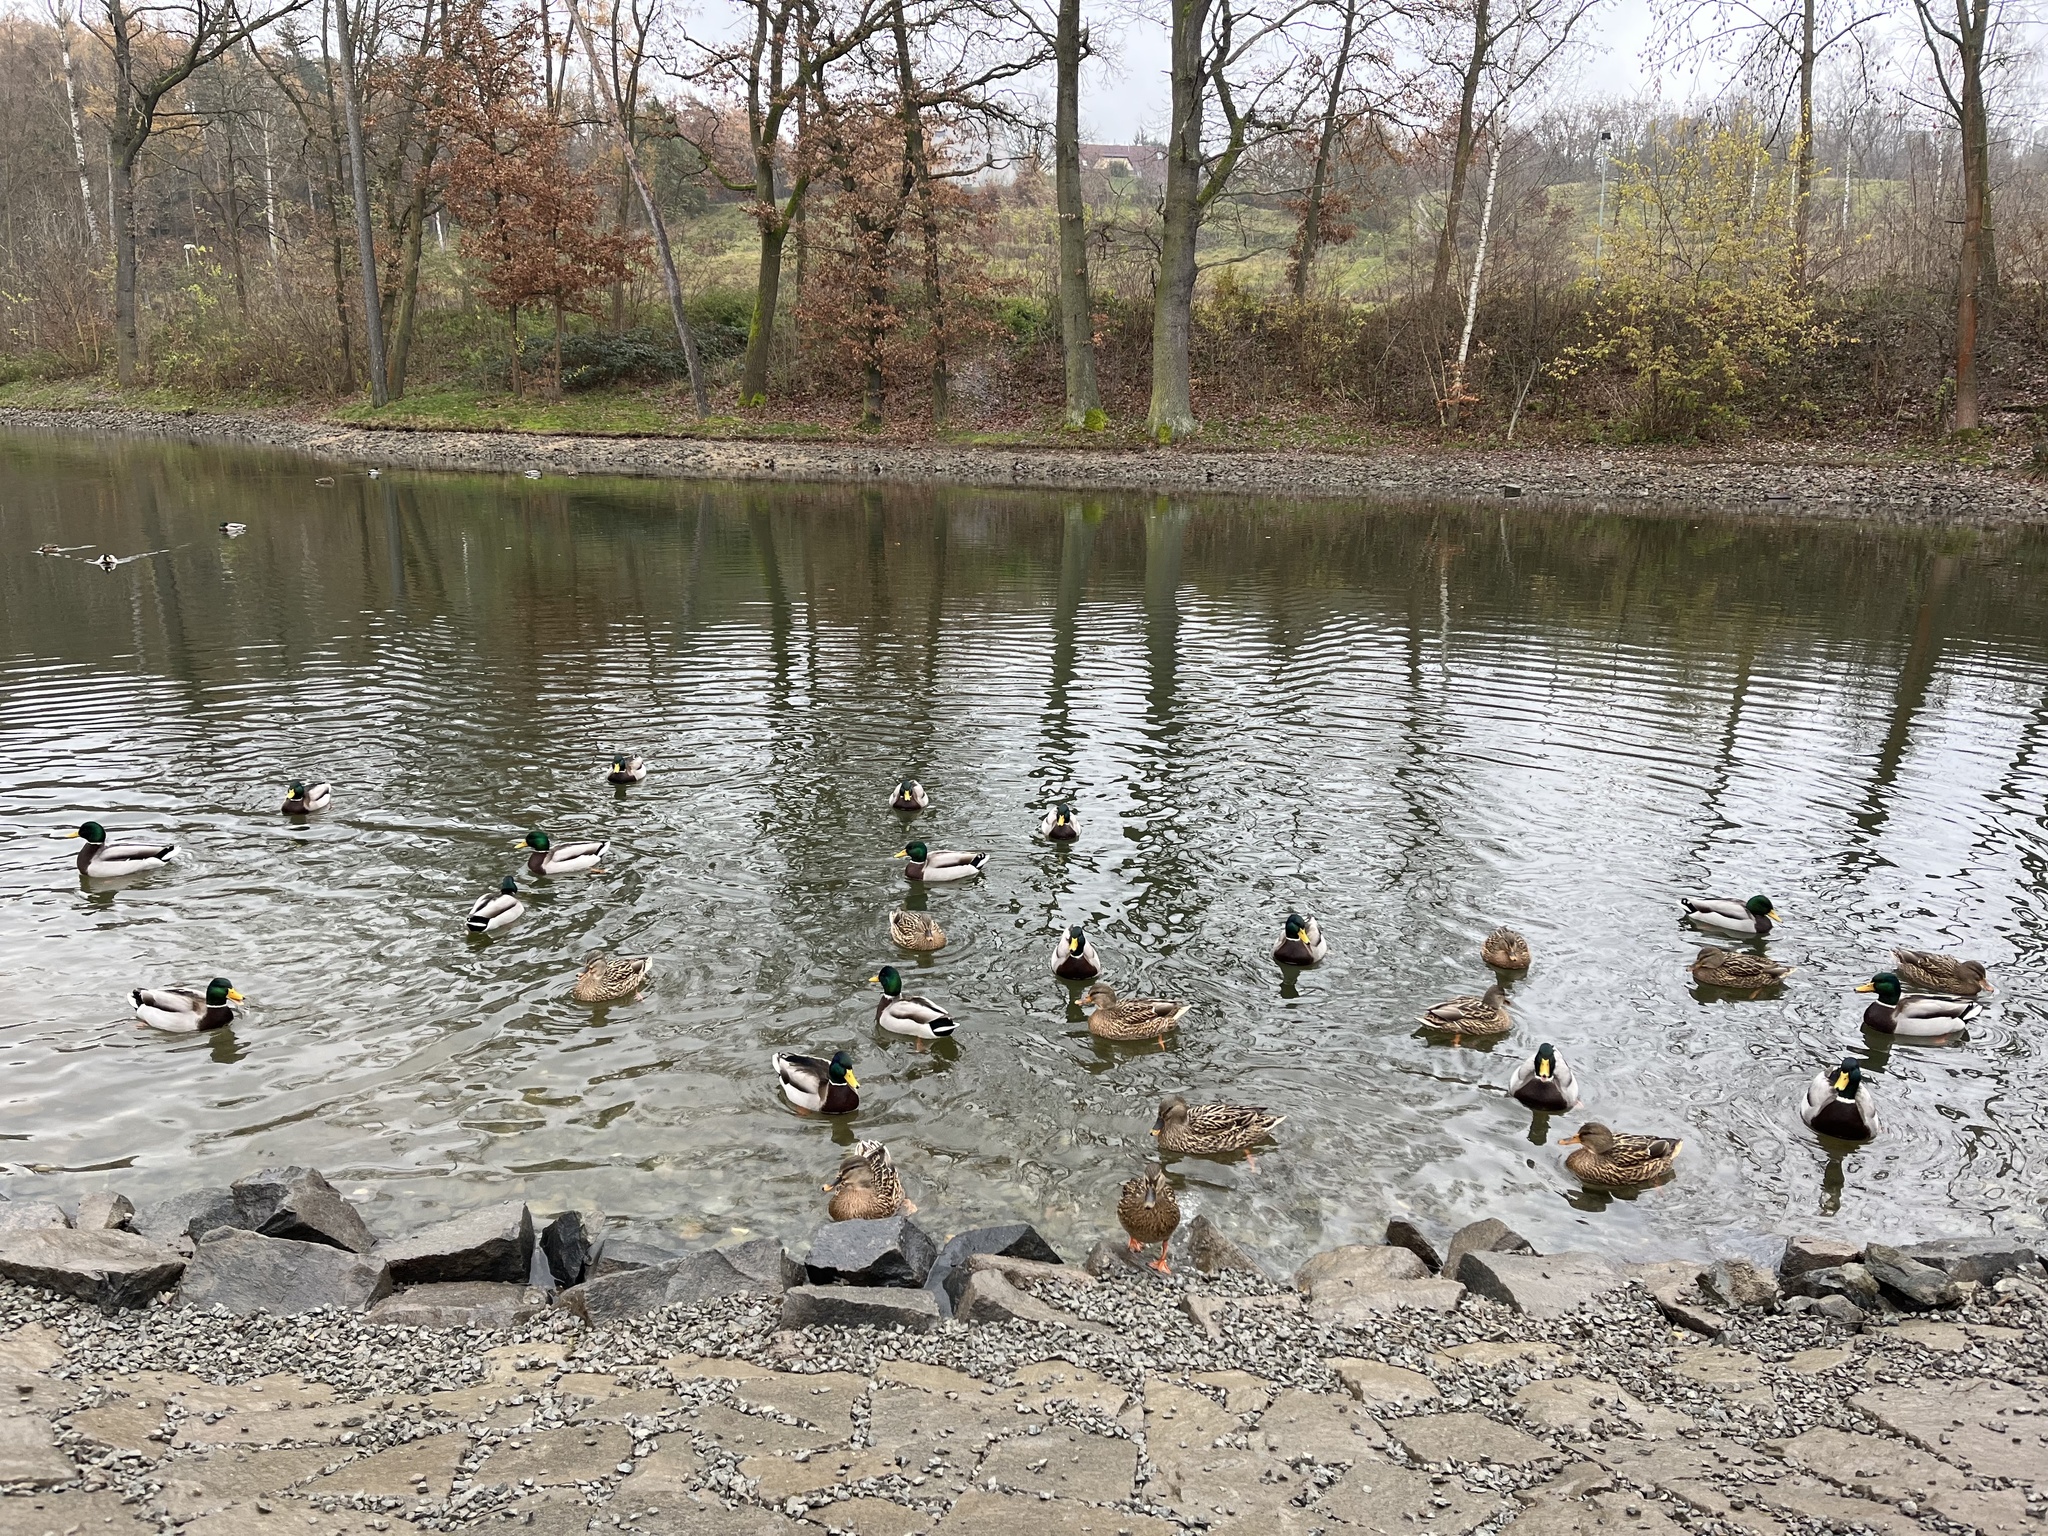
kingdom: Animalia
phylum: Chordata
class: Aves
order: Anseriformes
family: Anatidae
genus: Anas
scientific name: Anas platyrhynchos
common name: Mallard
